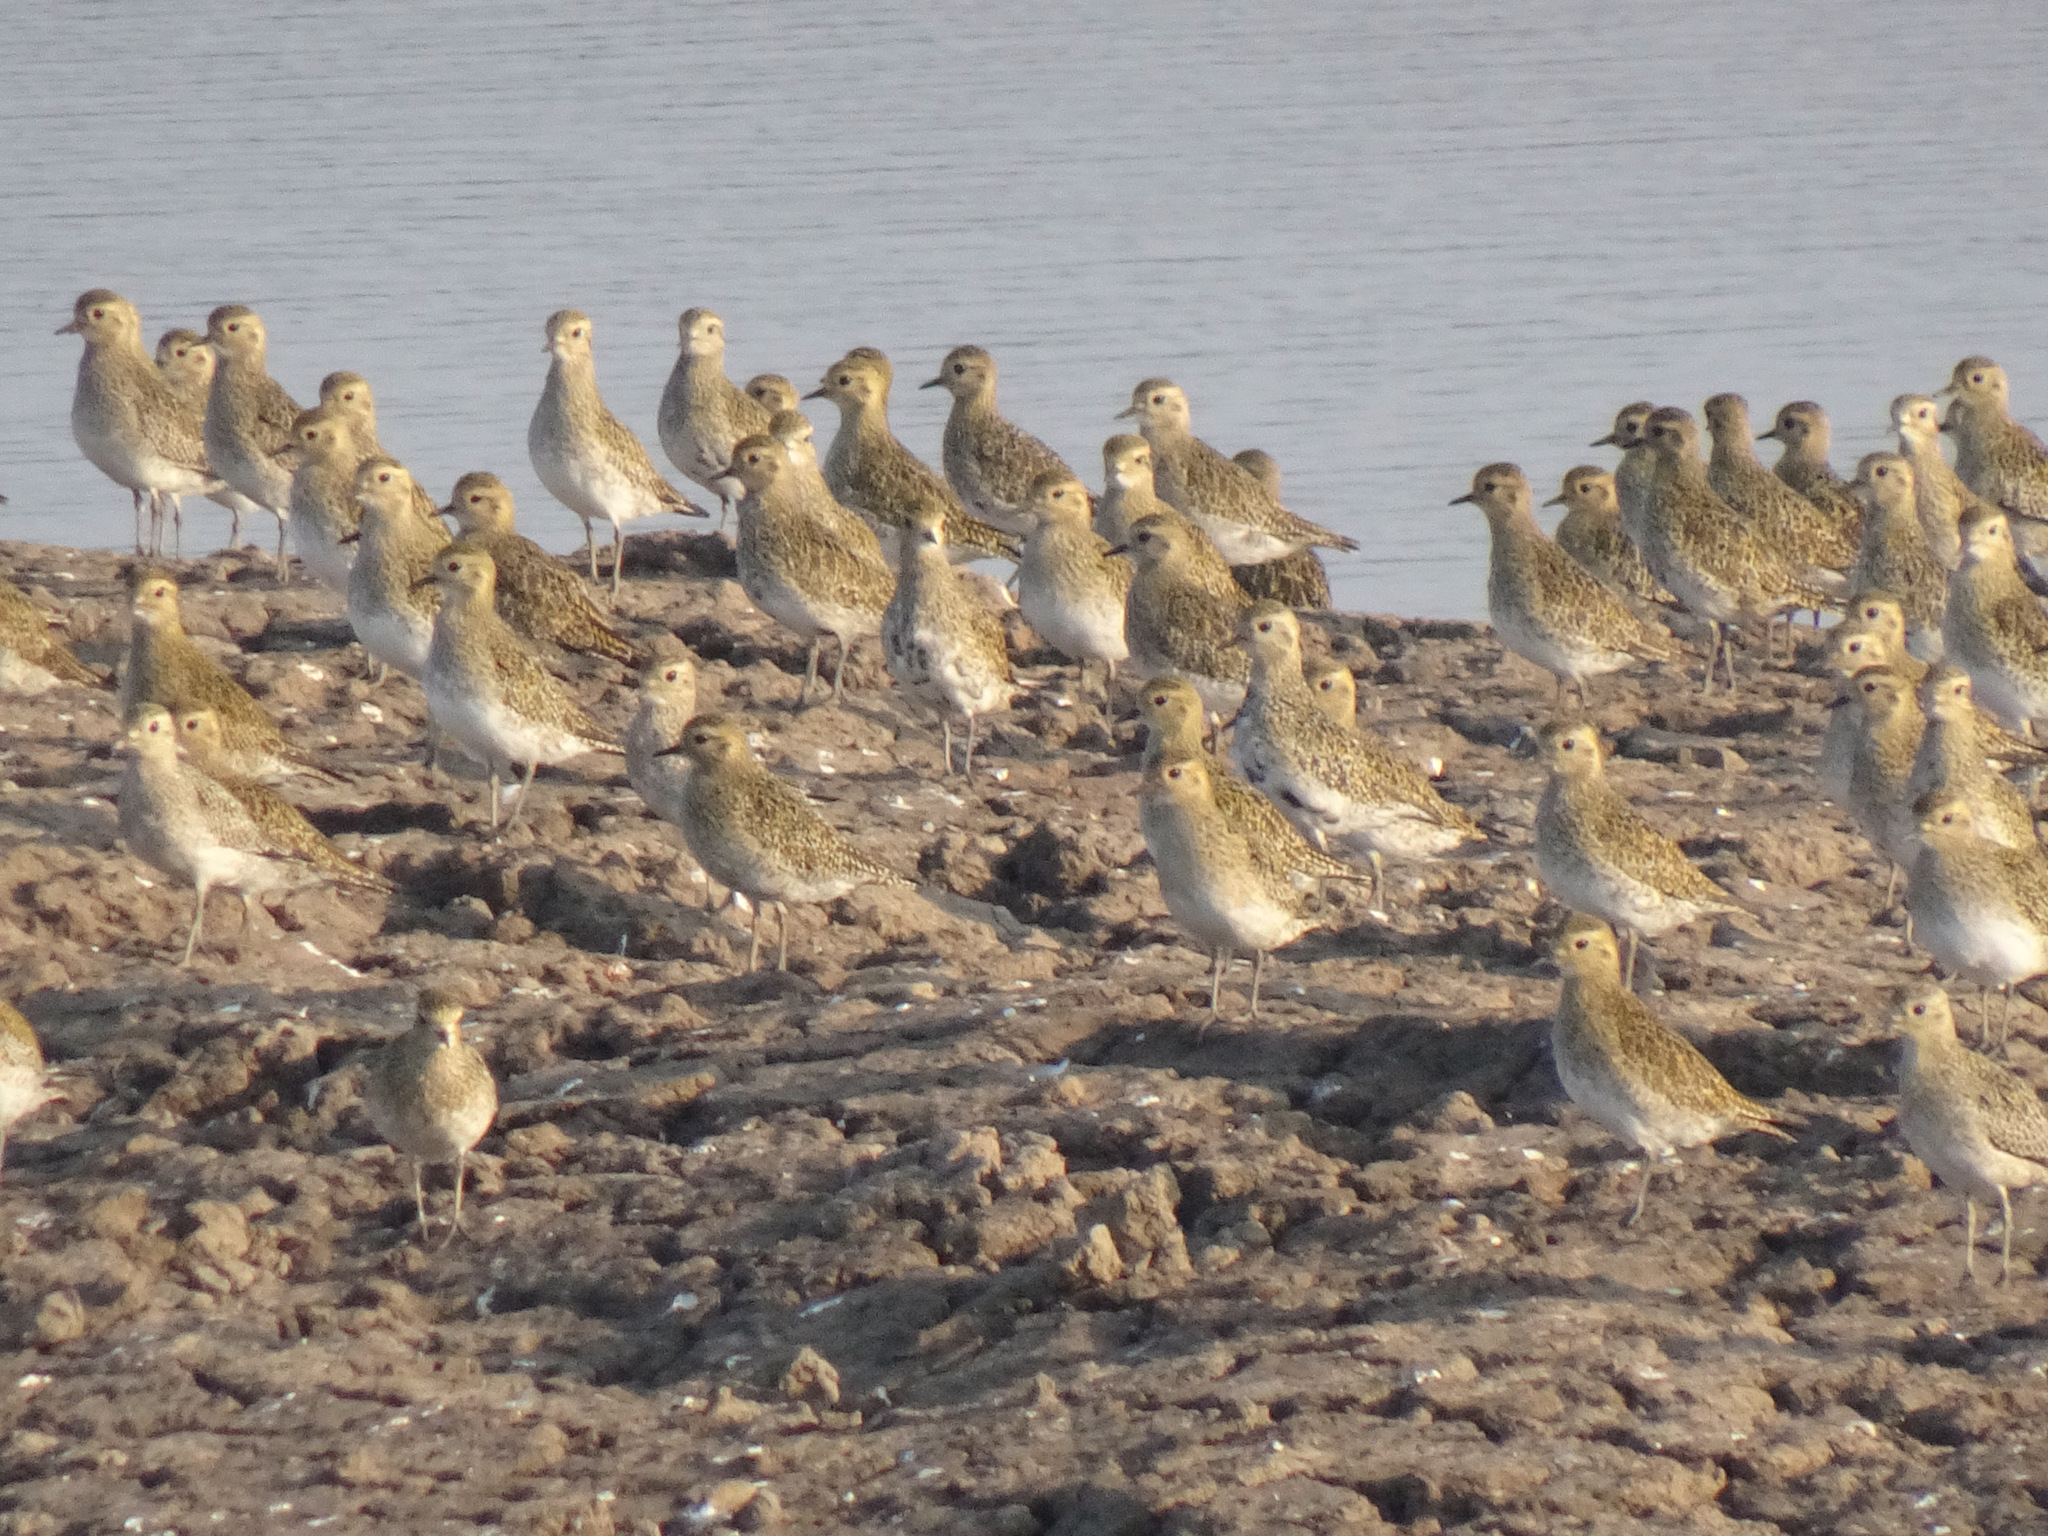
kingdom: Animalia
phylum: Chordata
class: Aves
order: Charadriiformes
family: Charadriidae
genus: Pluvialis
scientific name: Pluvialis apricaria
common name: European golden plover
